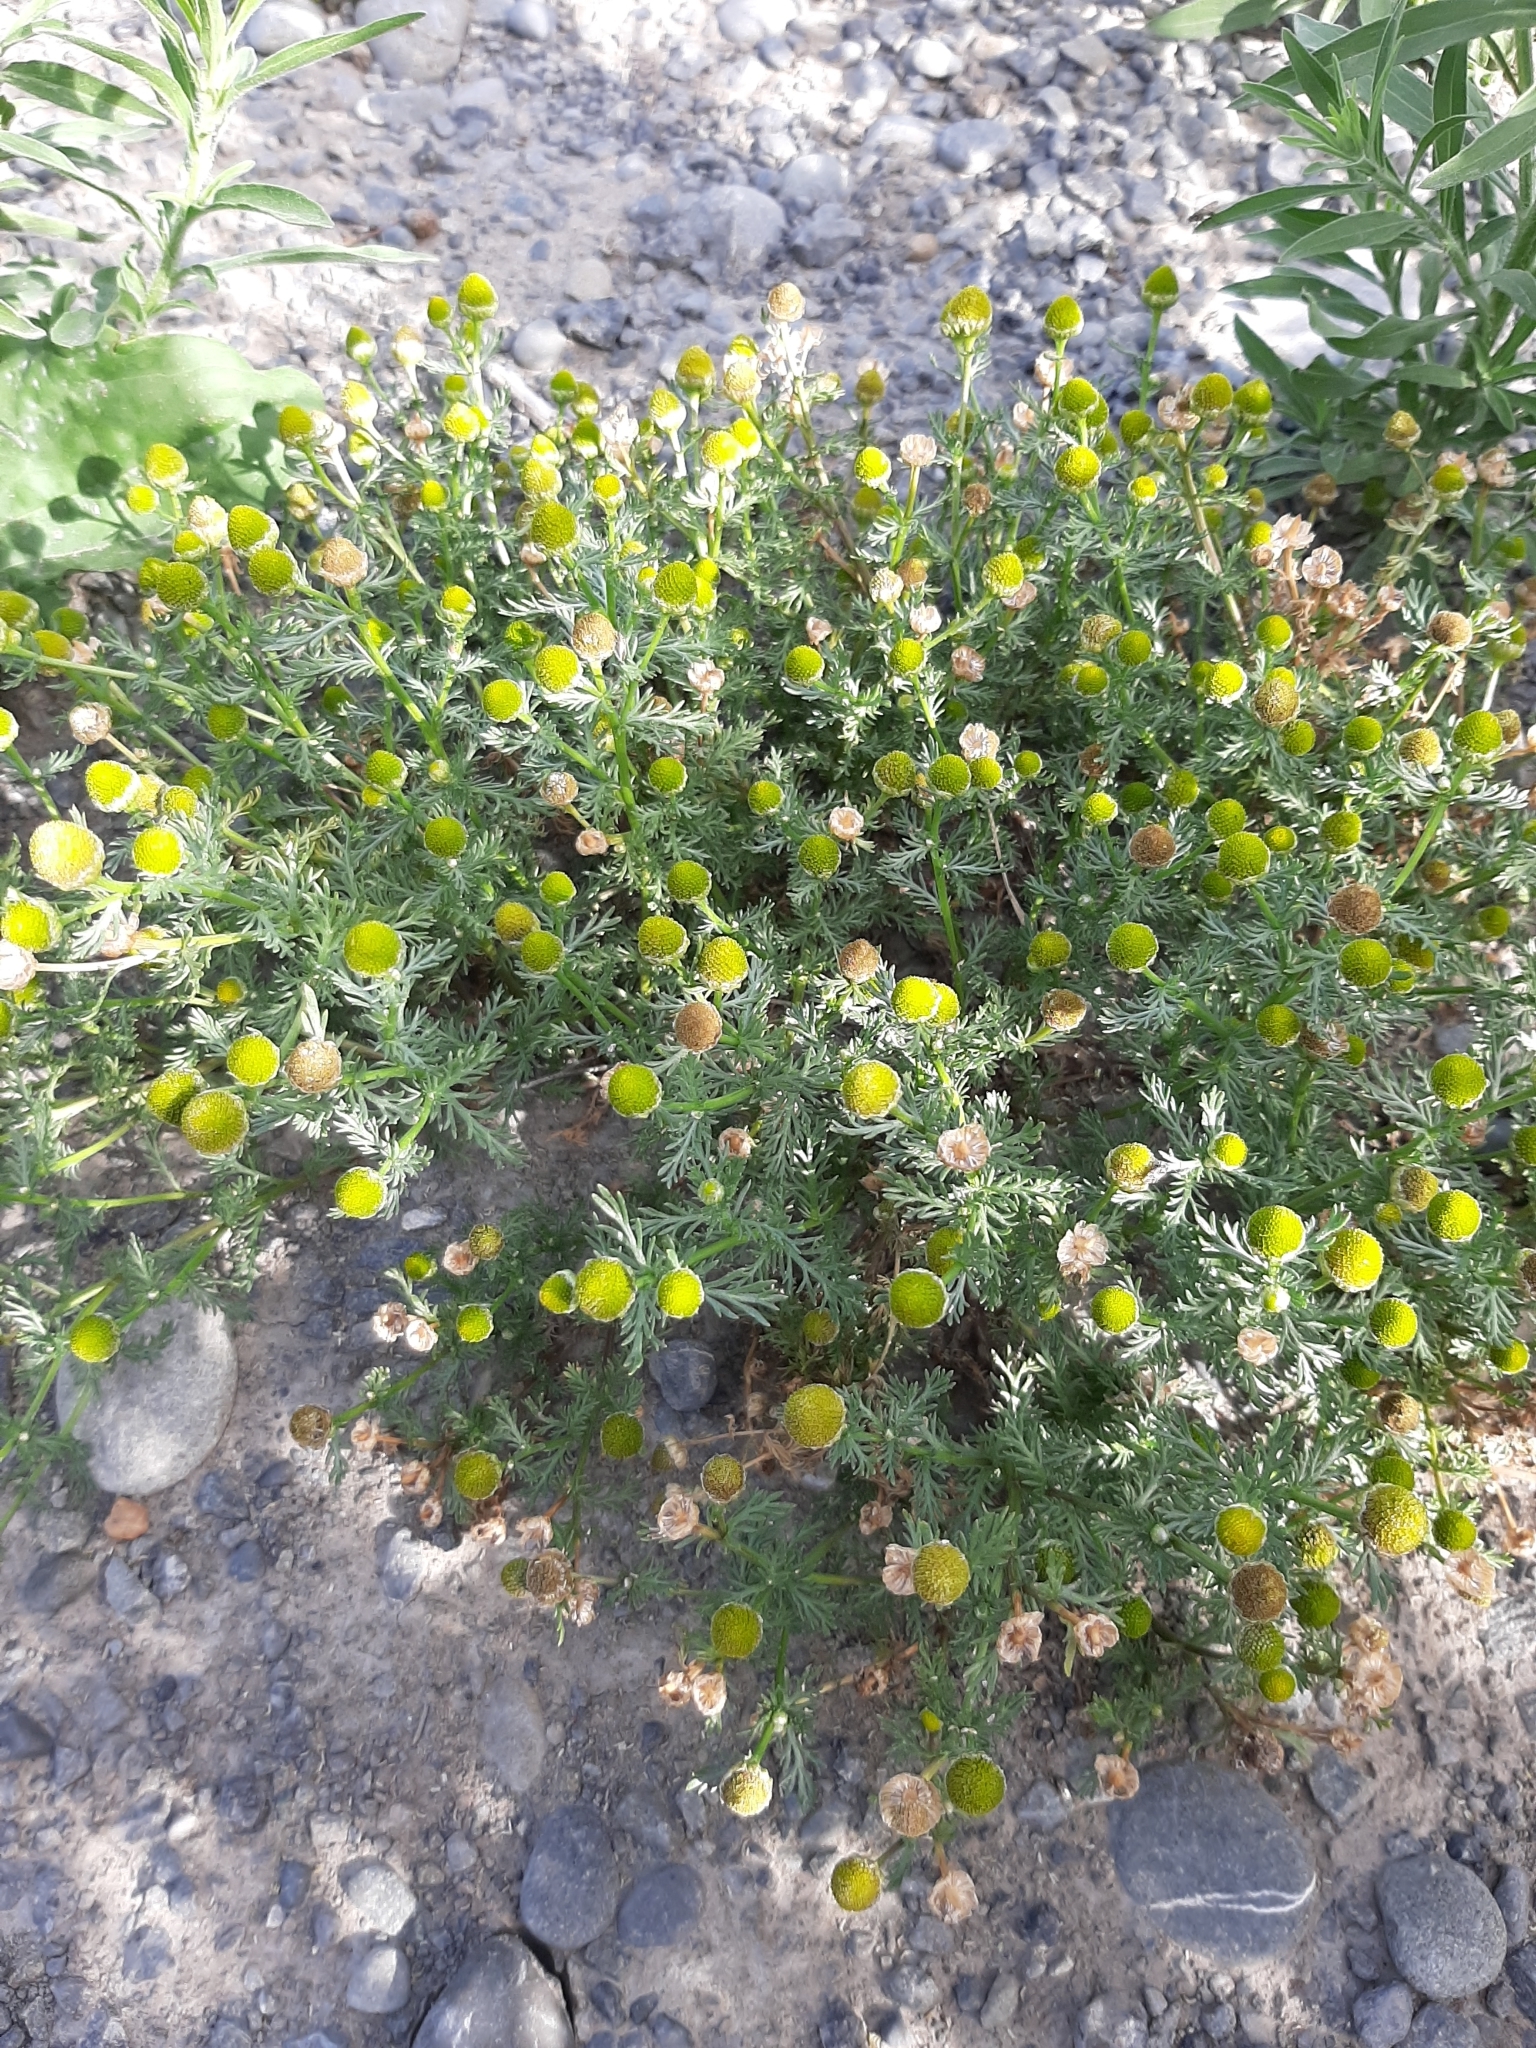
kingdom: Plantae
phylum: Tracheophyta
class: Magnoliopsida
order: Asterales
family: Asteraceae
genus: Matricaria
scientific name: Matricaria discoidea
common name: Disc mayweed
